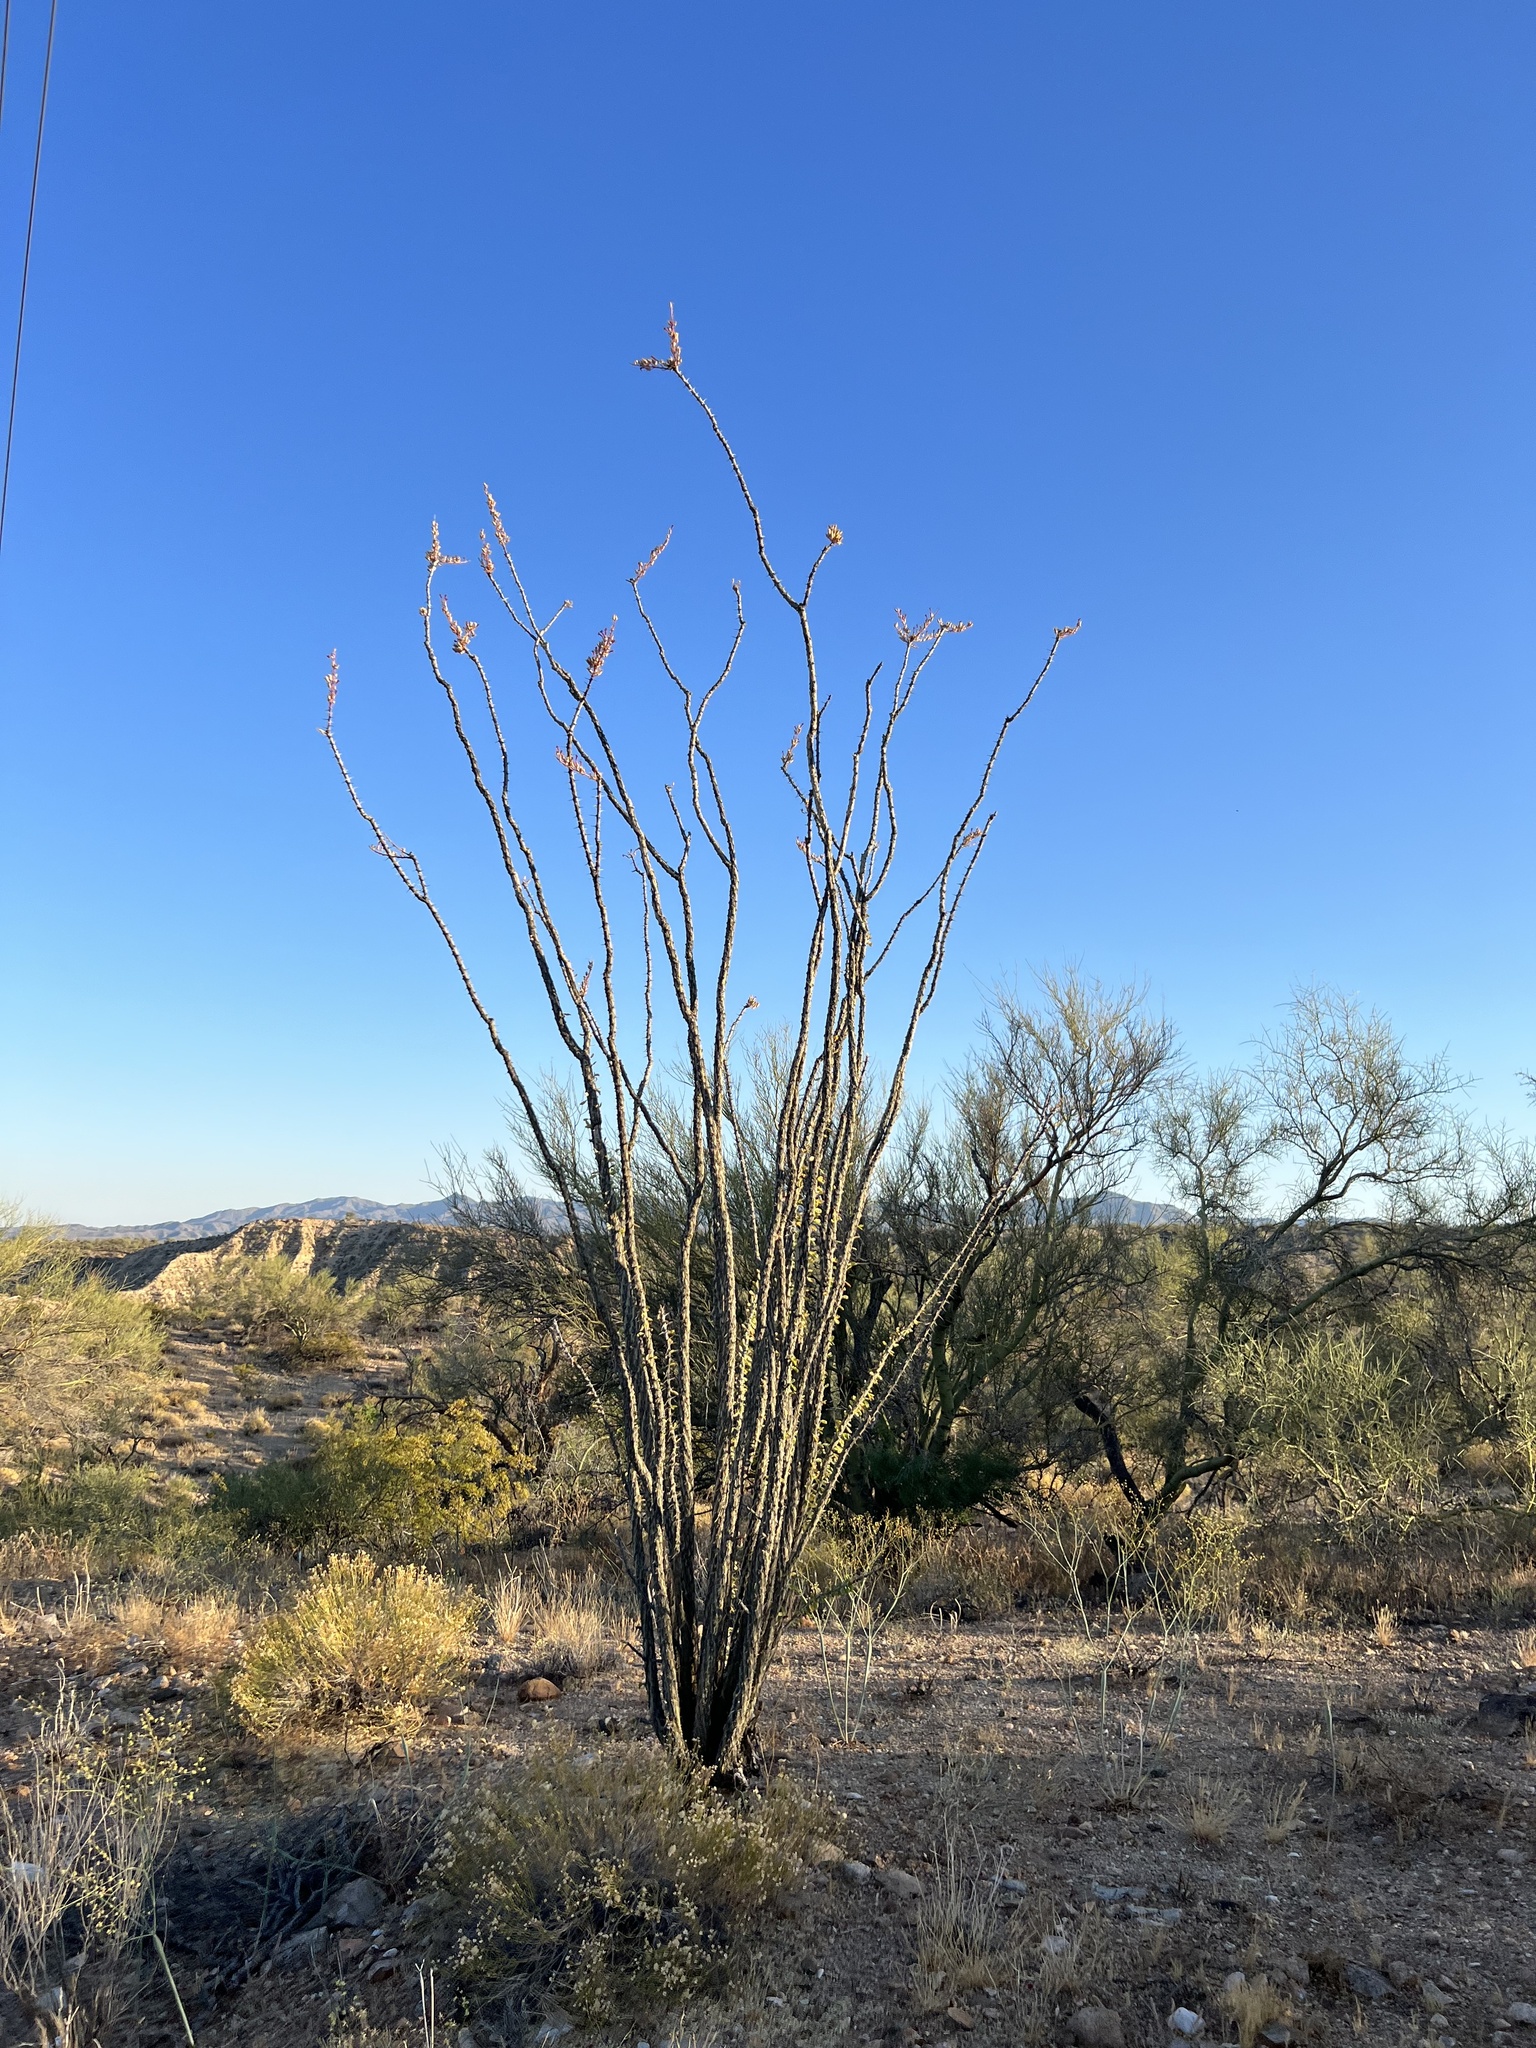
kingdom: Plantae
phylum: Tracheophyta
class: Magnoliopsida
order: Ericales
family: Fouquieriaceae
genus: Fouquieria
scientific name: Fouquieria splendens
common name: Vine-cactus
